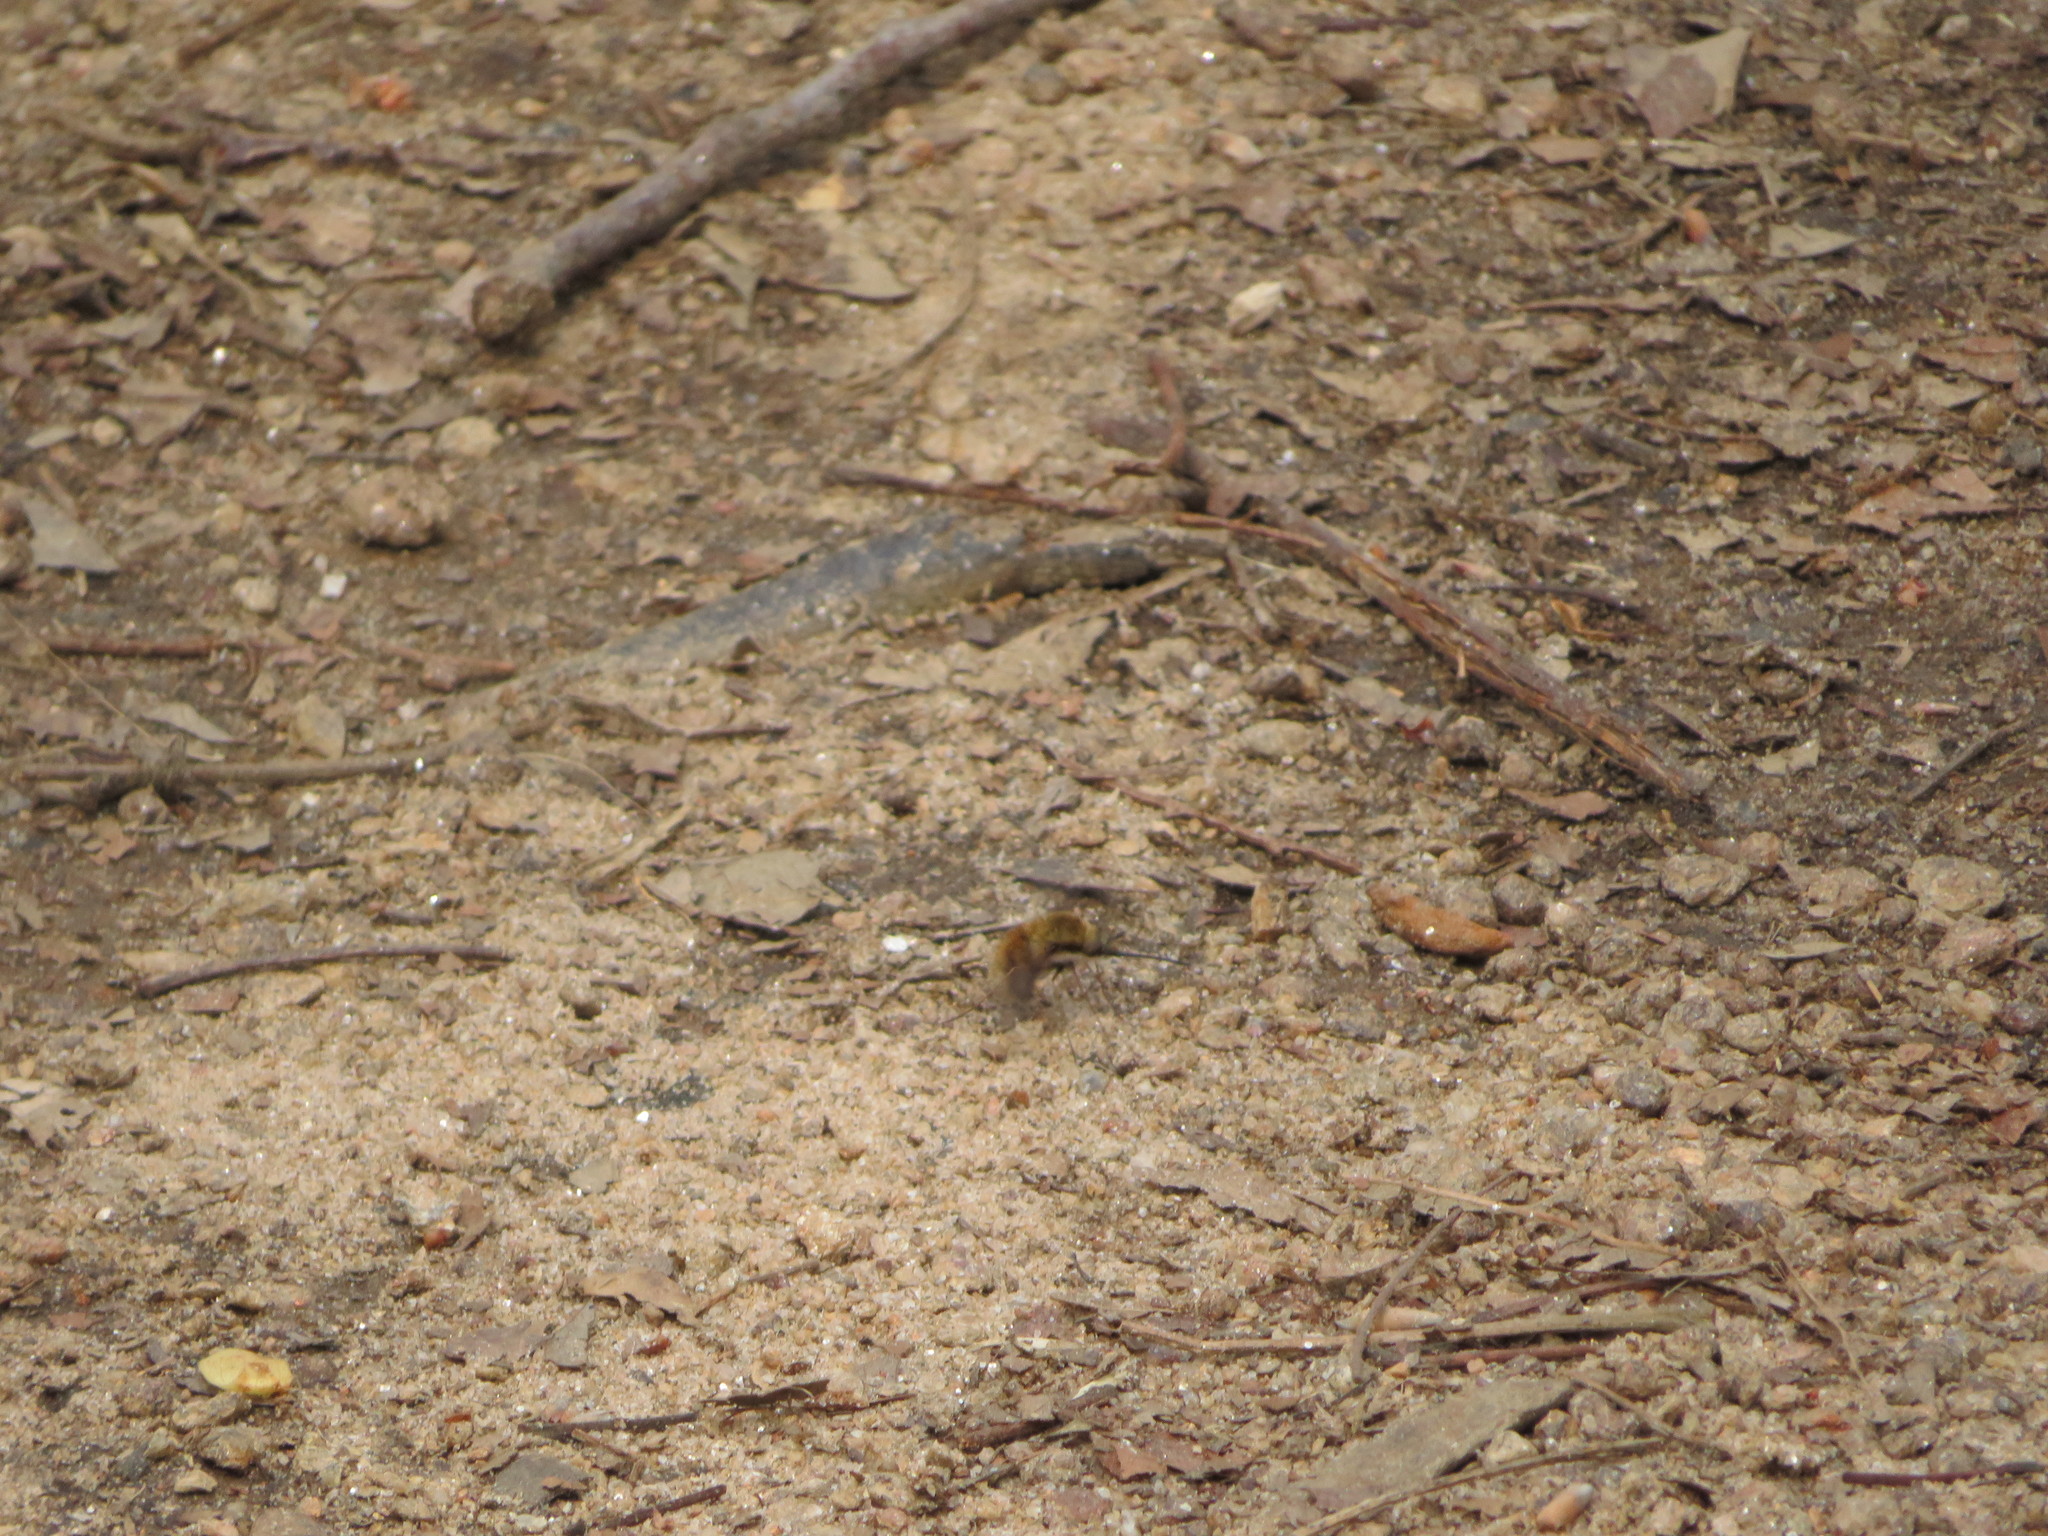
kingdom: Animalia
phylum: Arthropoda
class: Insecta
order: Diptera
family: Bombyliidae
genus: Bombylius
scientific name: Bombylius major
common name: Bee fly
